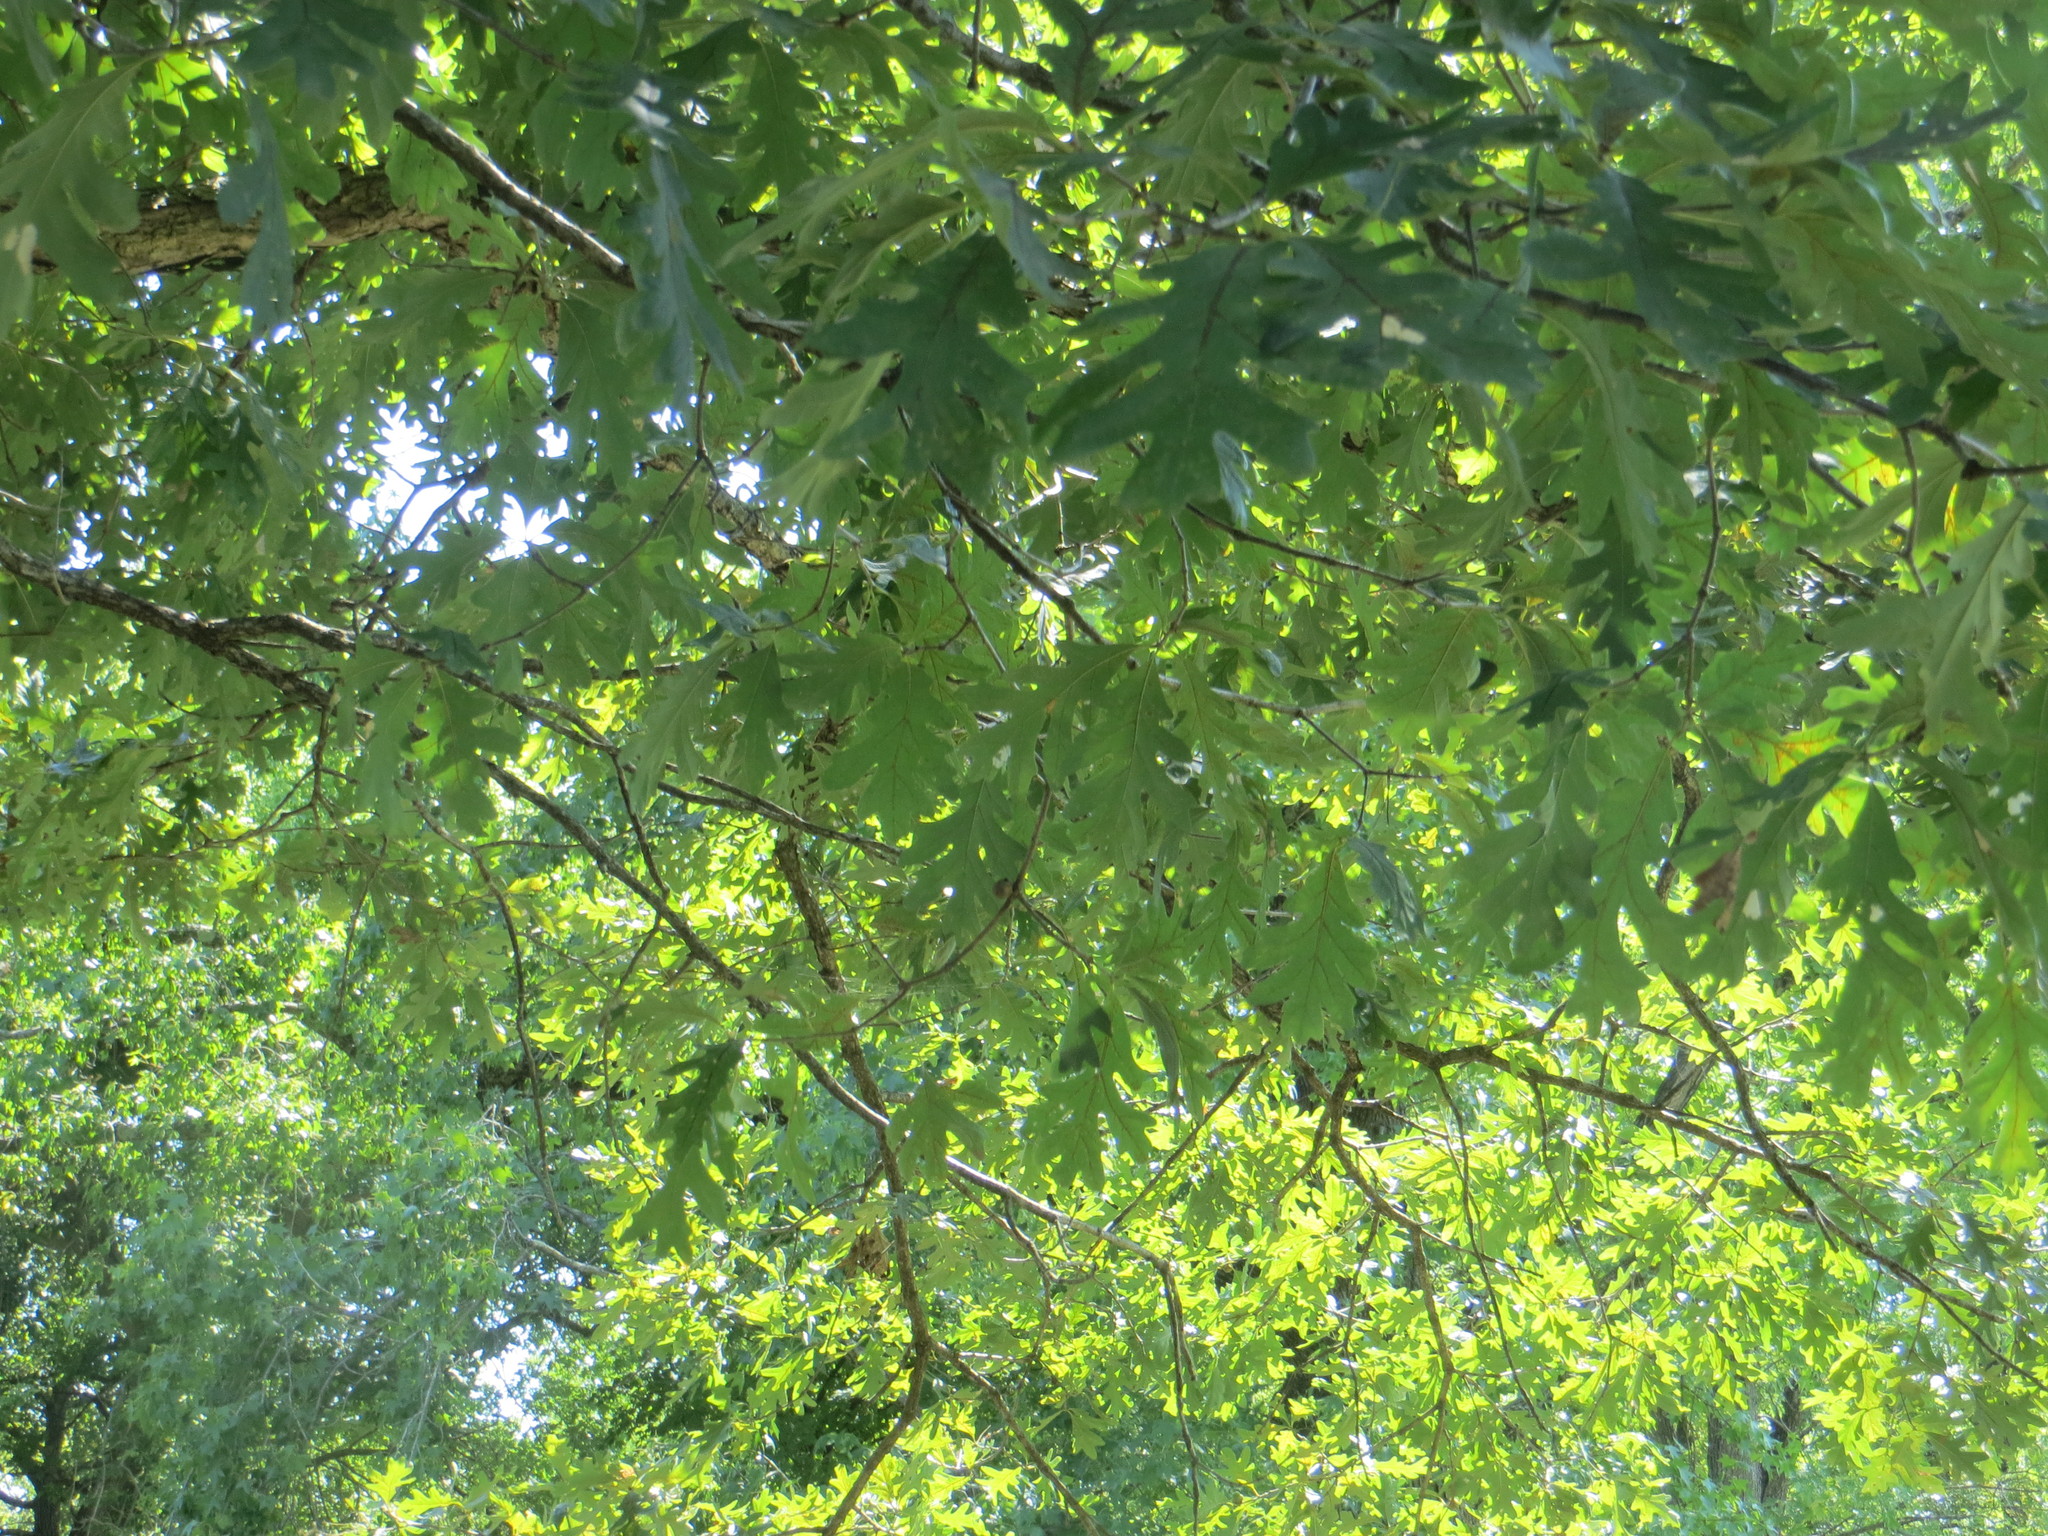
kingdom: Plantae
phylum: Tracheophyta
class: Magnoliopsida
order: Fagales
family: Fagaceae
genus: Quercus
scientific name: Quercus alba
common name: White oak
